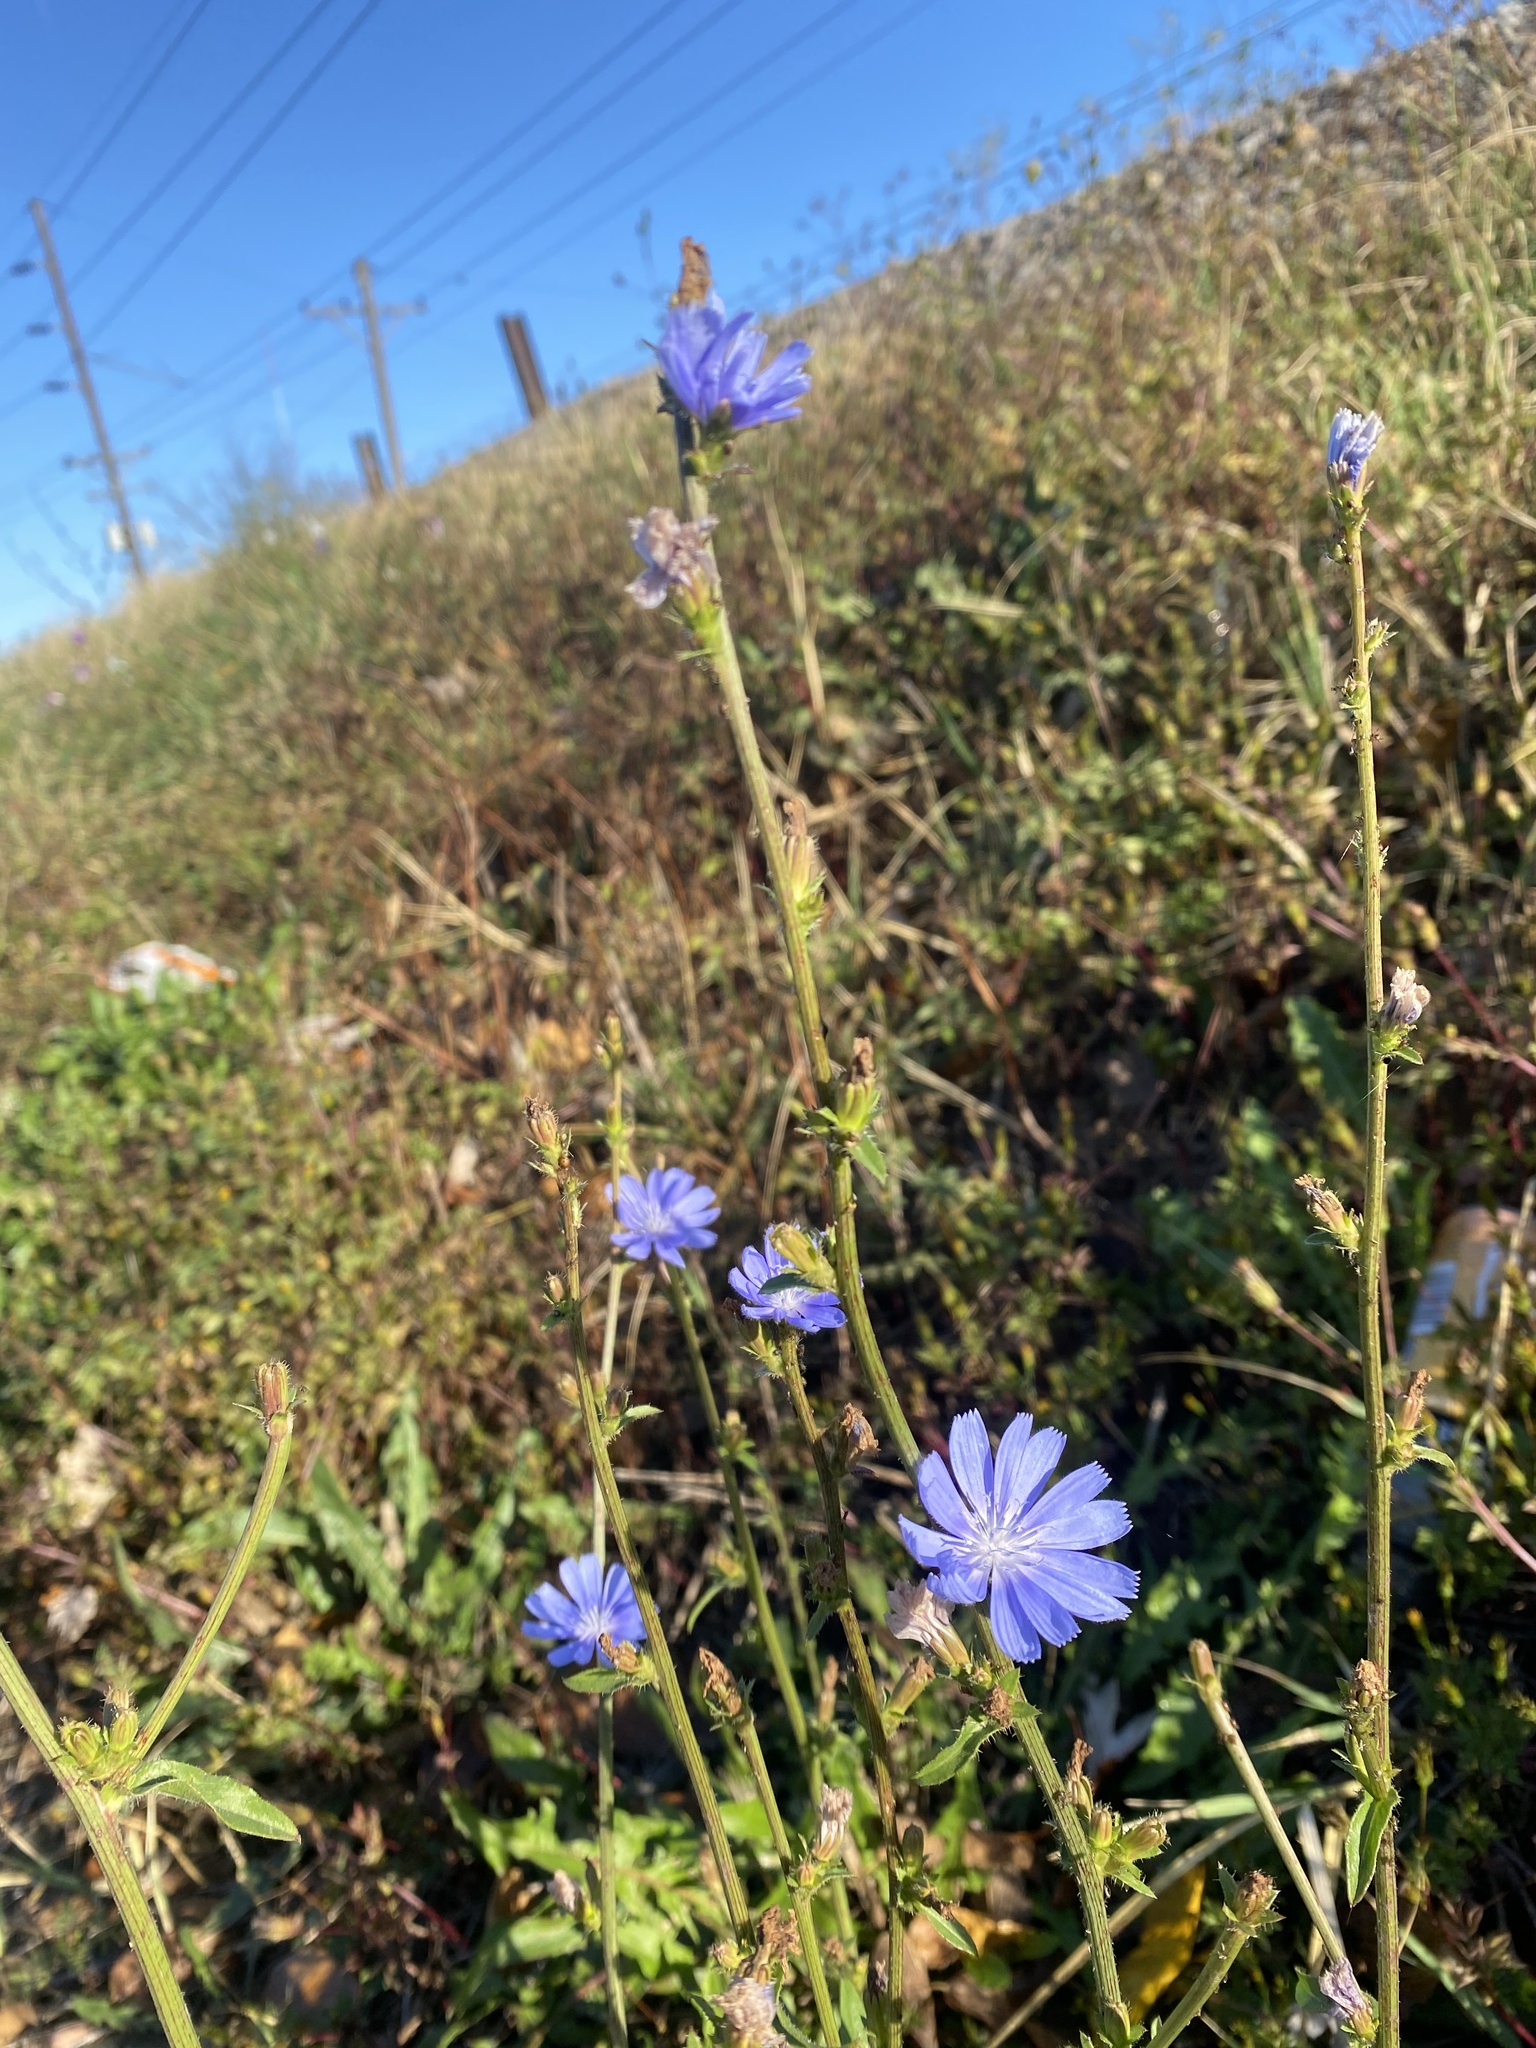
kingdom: Plantae
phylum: Tracheophyta
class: Magnoliopsida
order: Asterales
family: Asteraceae
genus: Cichorium
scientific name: Cichorium intybus
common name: Chicory
